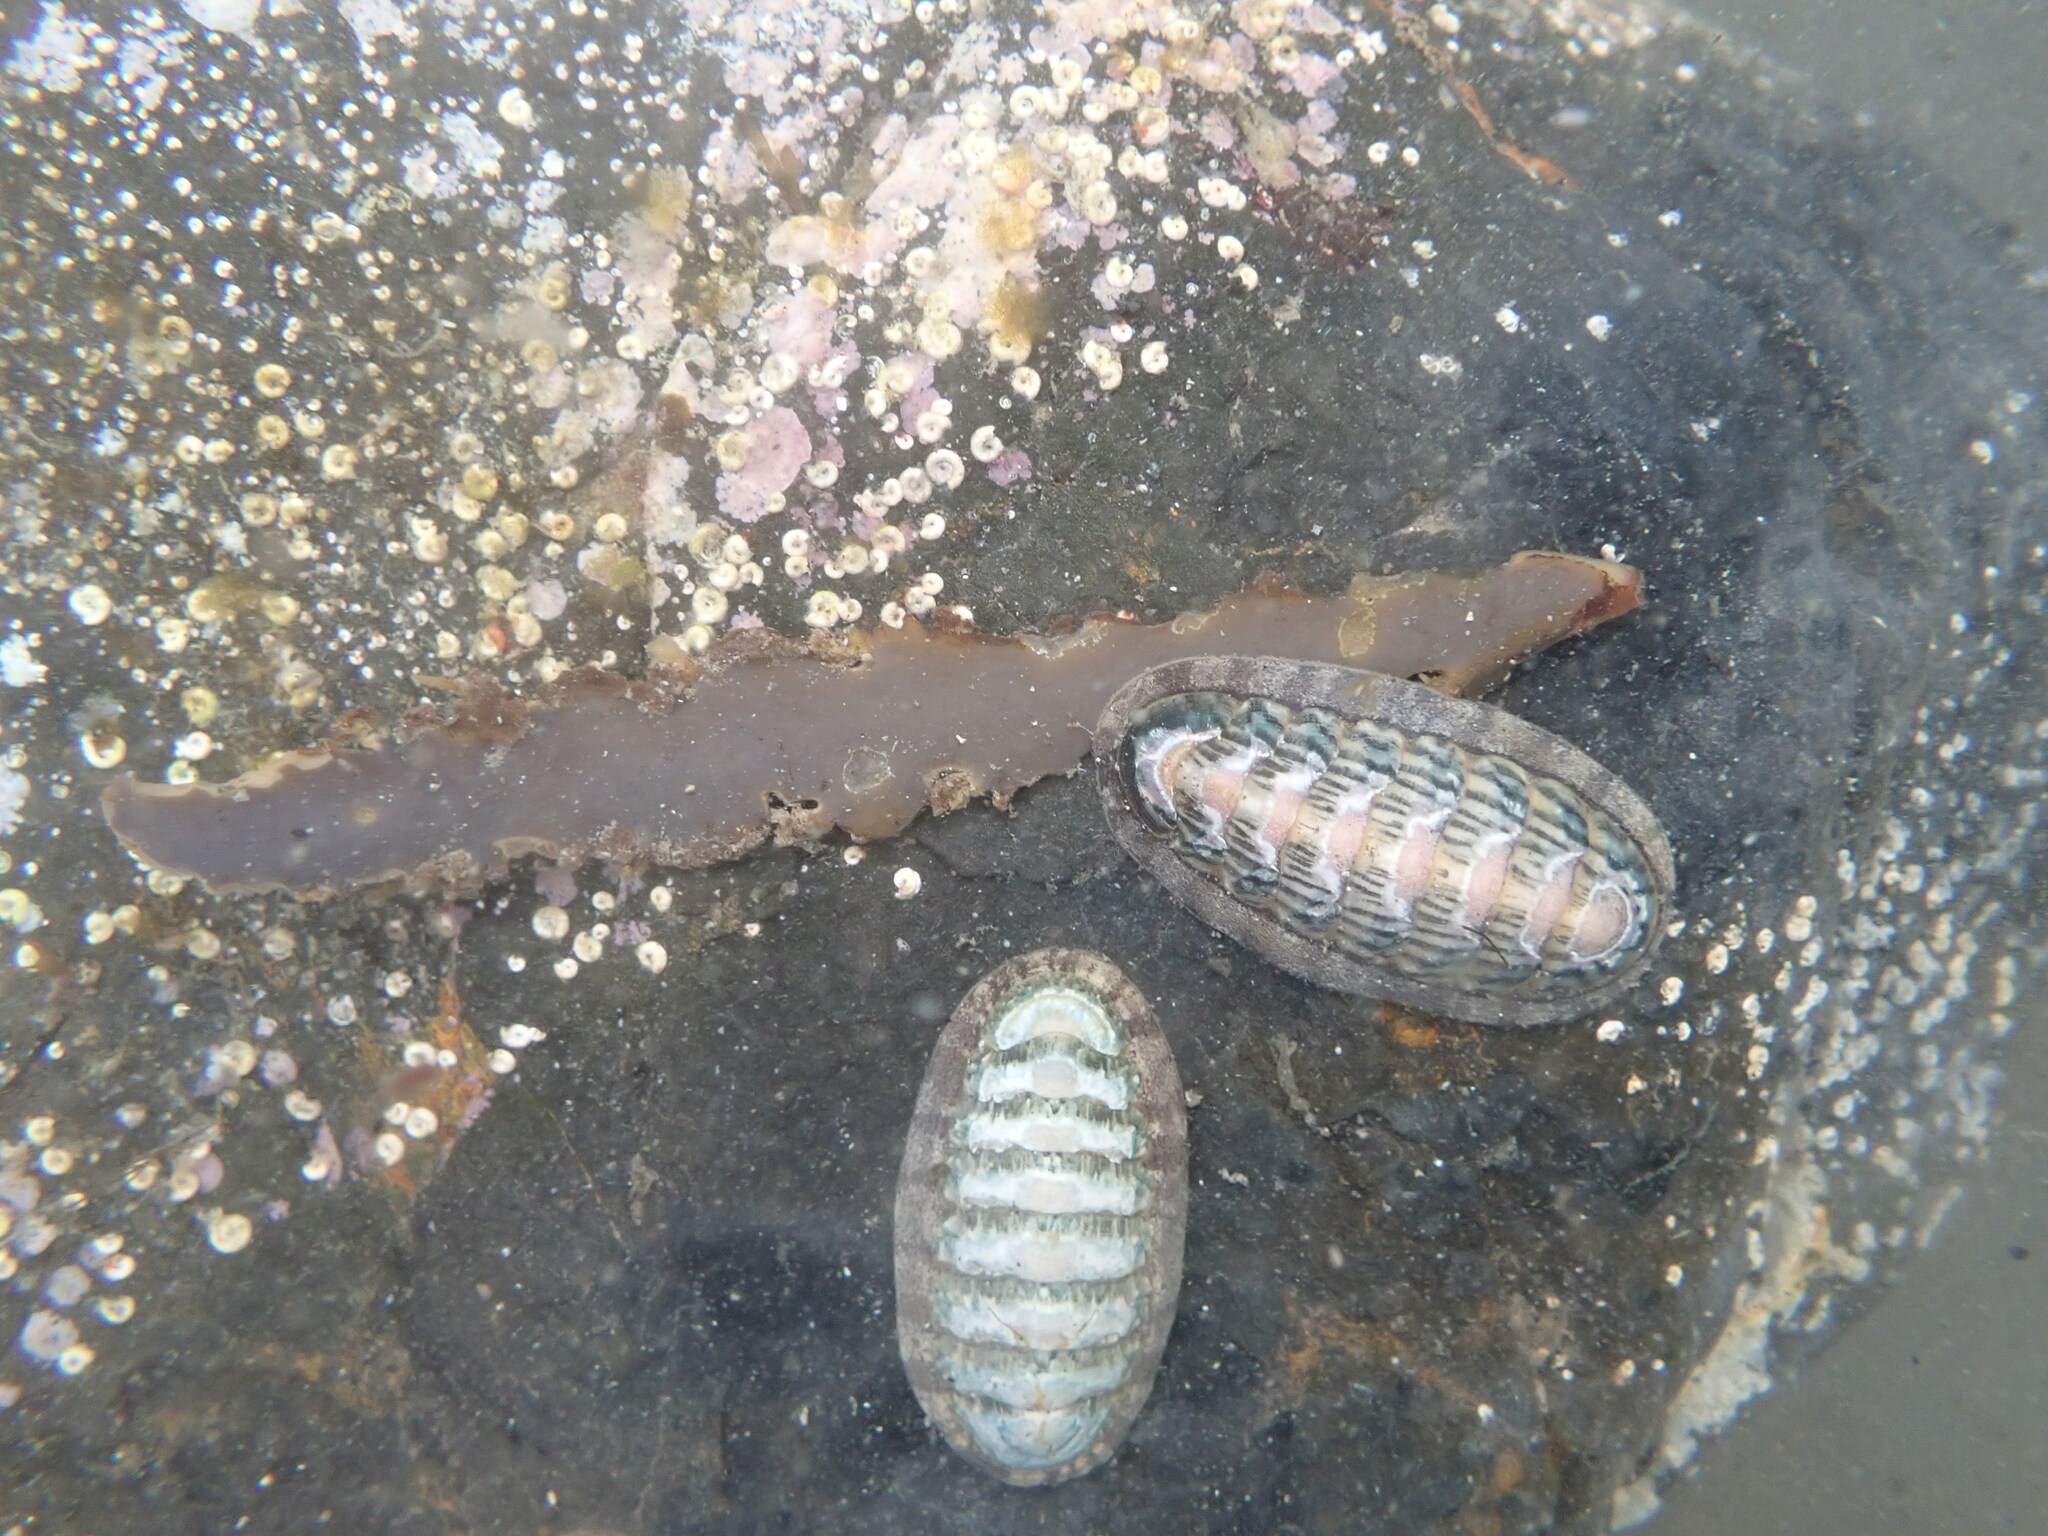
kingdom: Animalia
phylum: Mollusca
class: Polyplacophora
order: Chitonida
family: Ischnochitonidae
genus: Ischnochiton
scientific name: Ischnochiton maorianus
